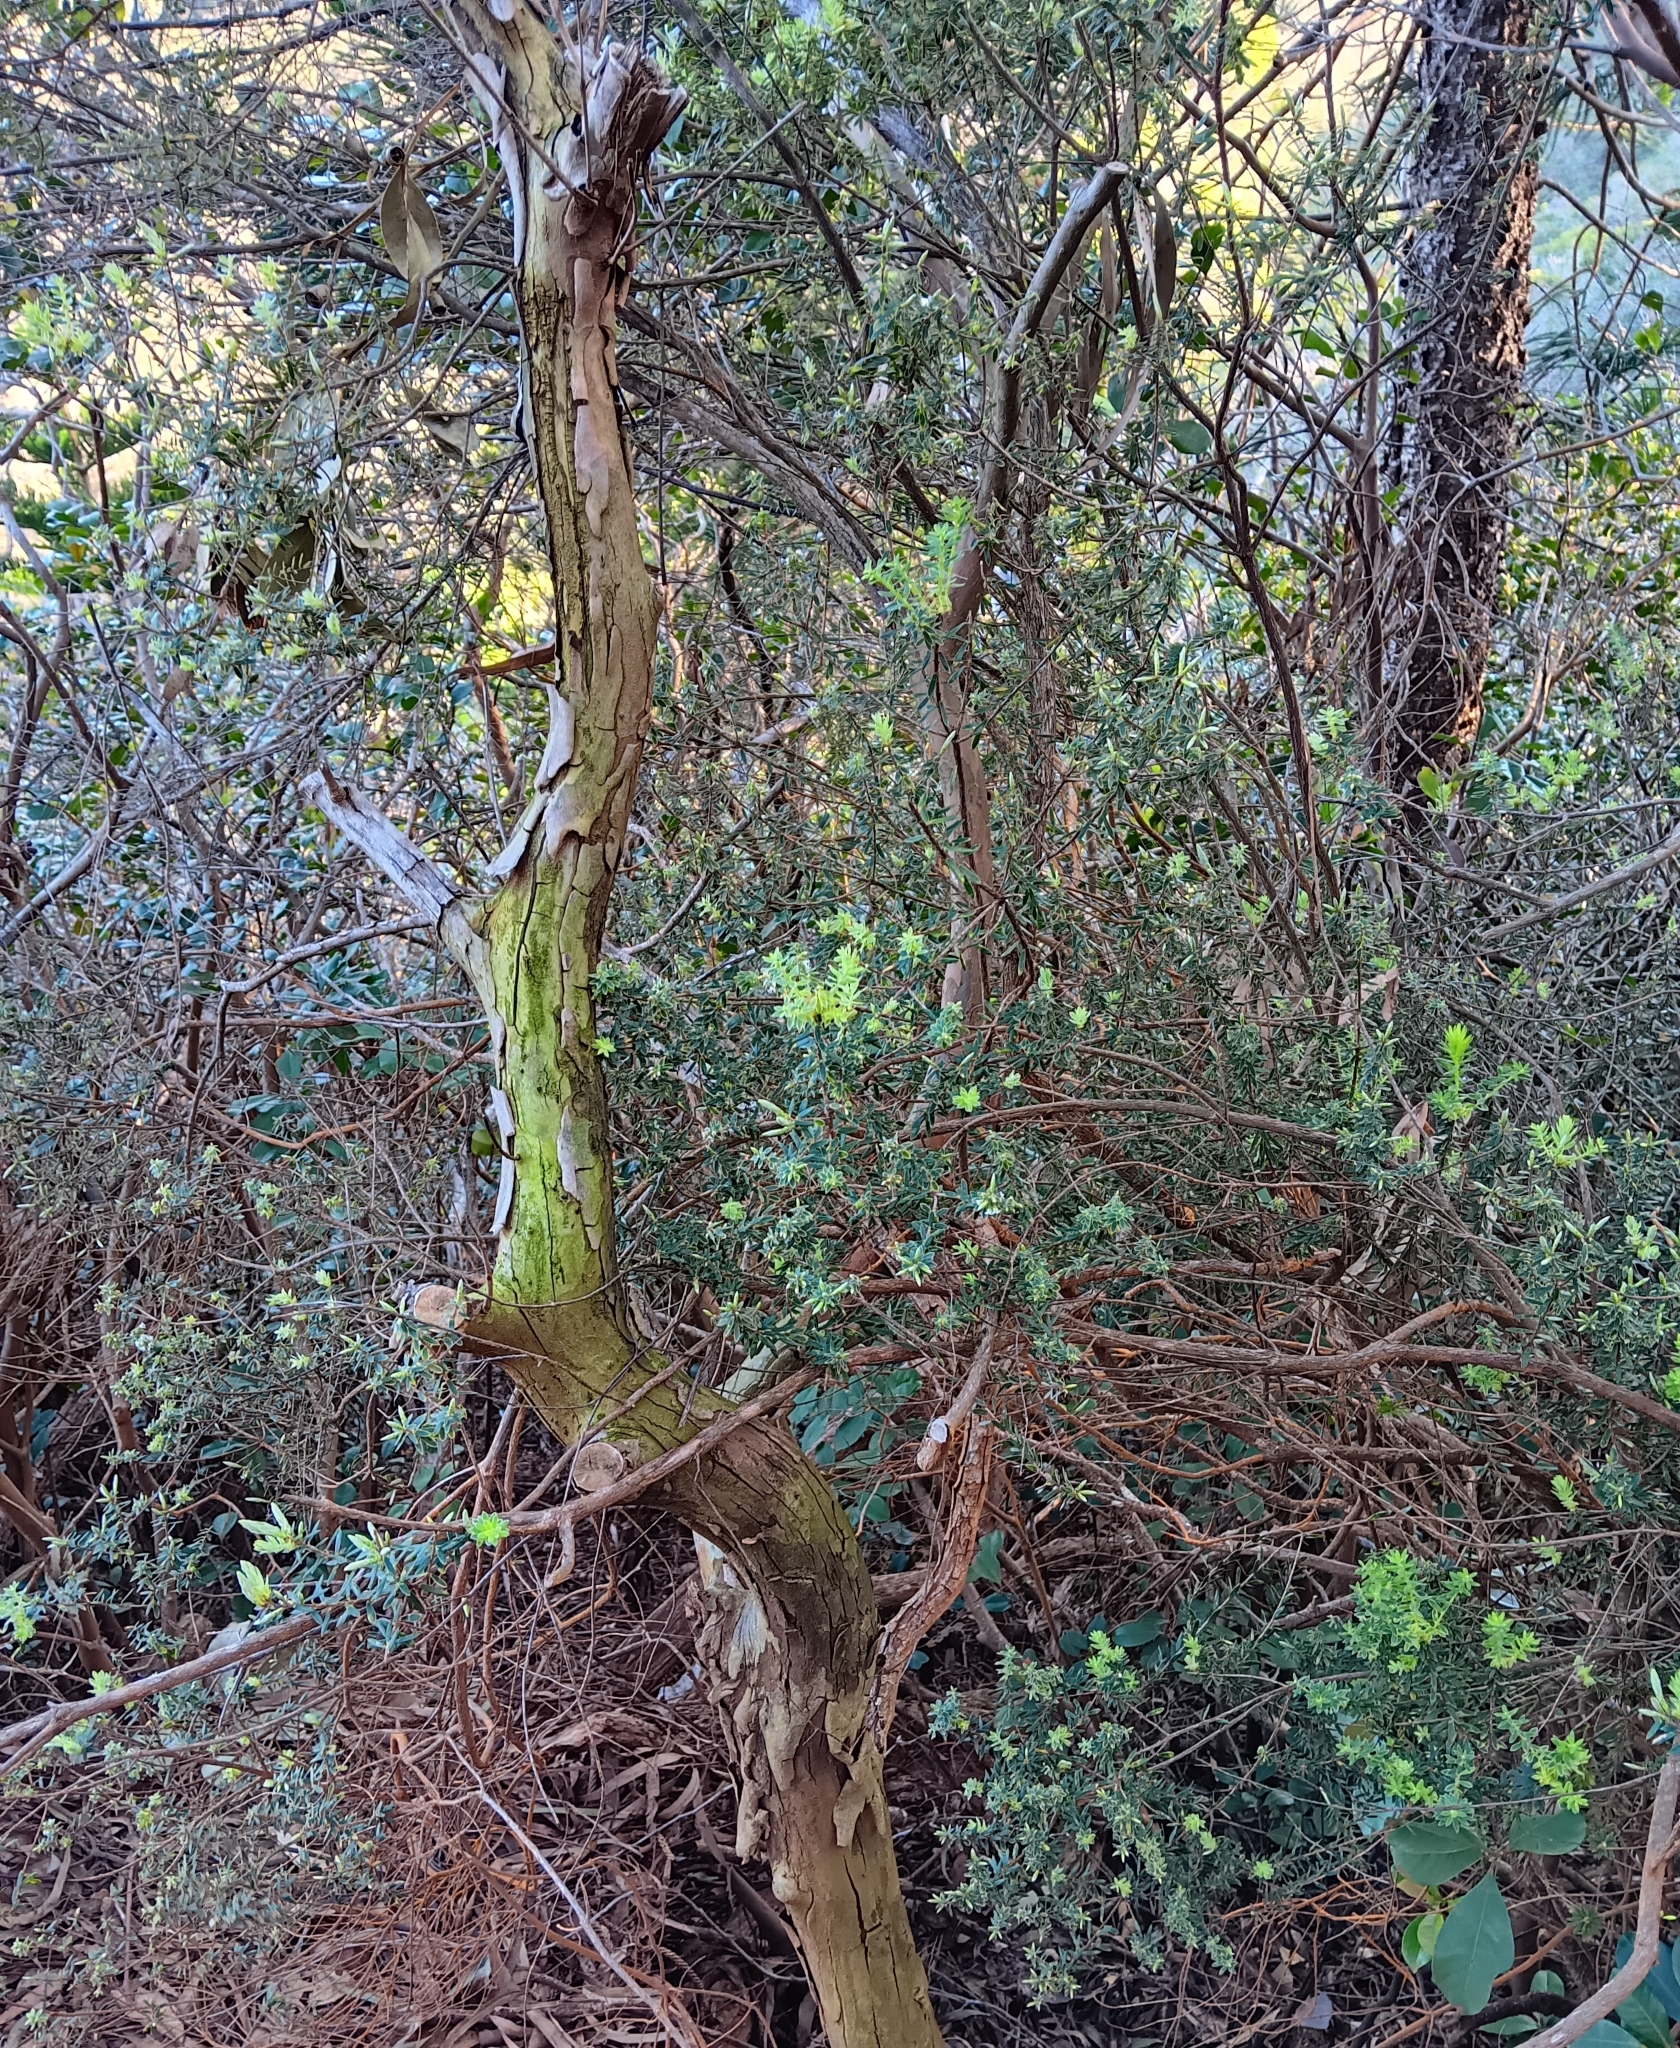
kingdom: Plantae
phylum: Tracheophyta
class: Magnoliopsida
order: Ericales
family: Ericaceae
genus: Leptecophylla
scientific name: Leptecophylla tameiameiae
